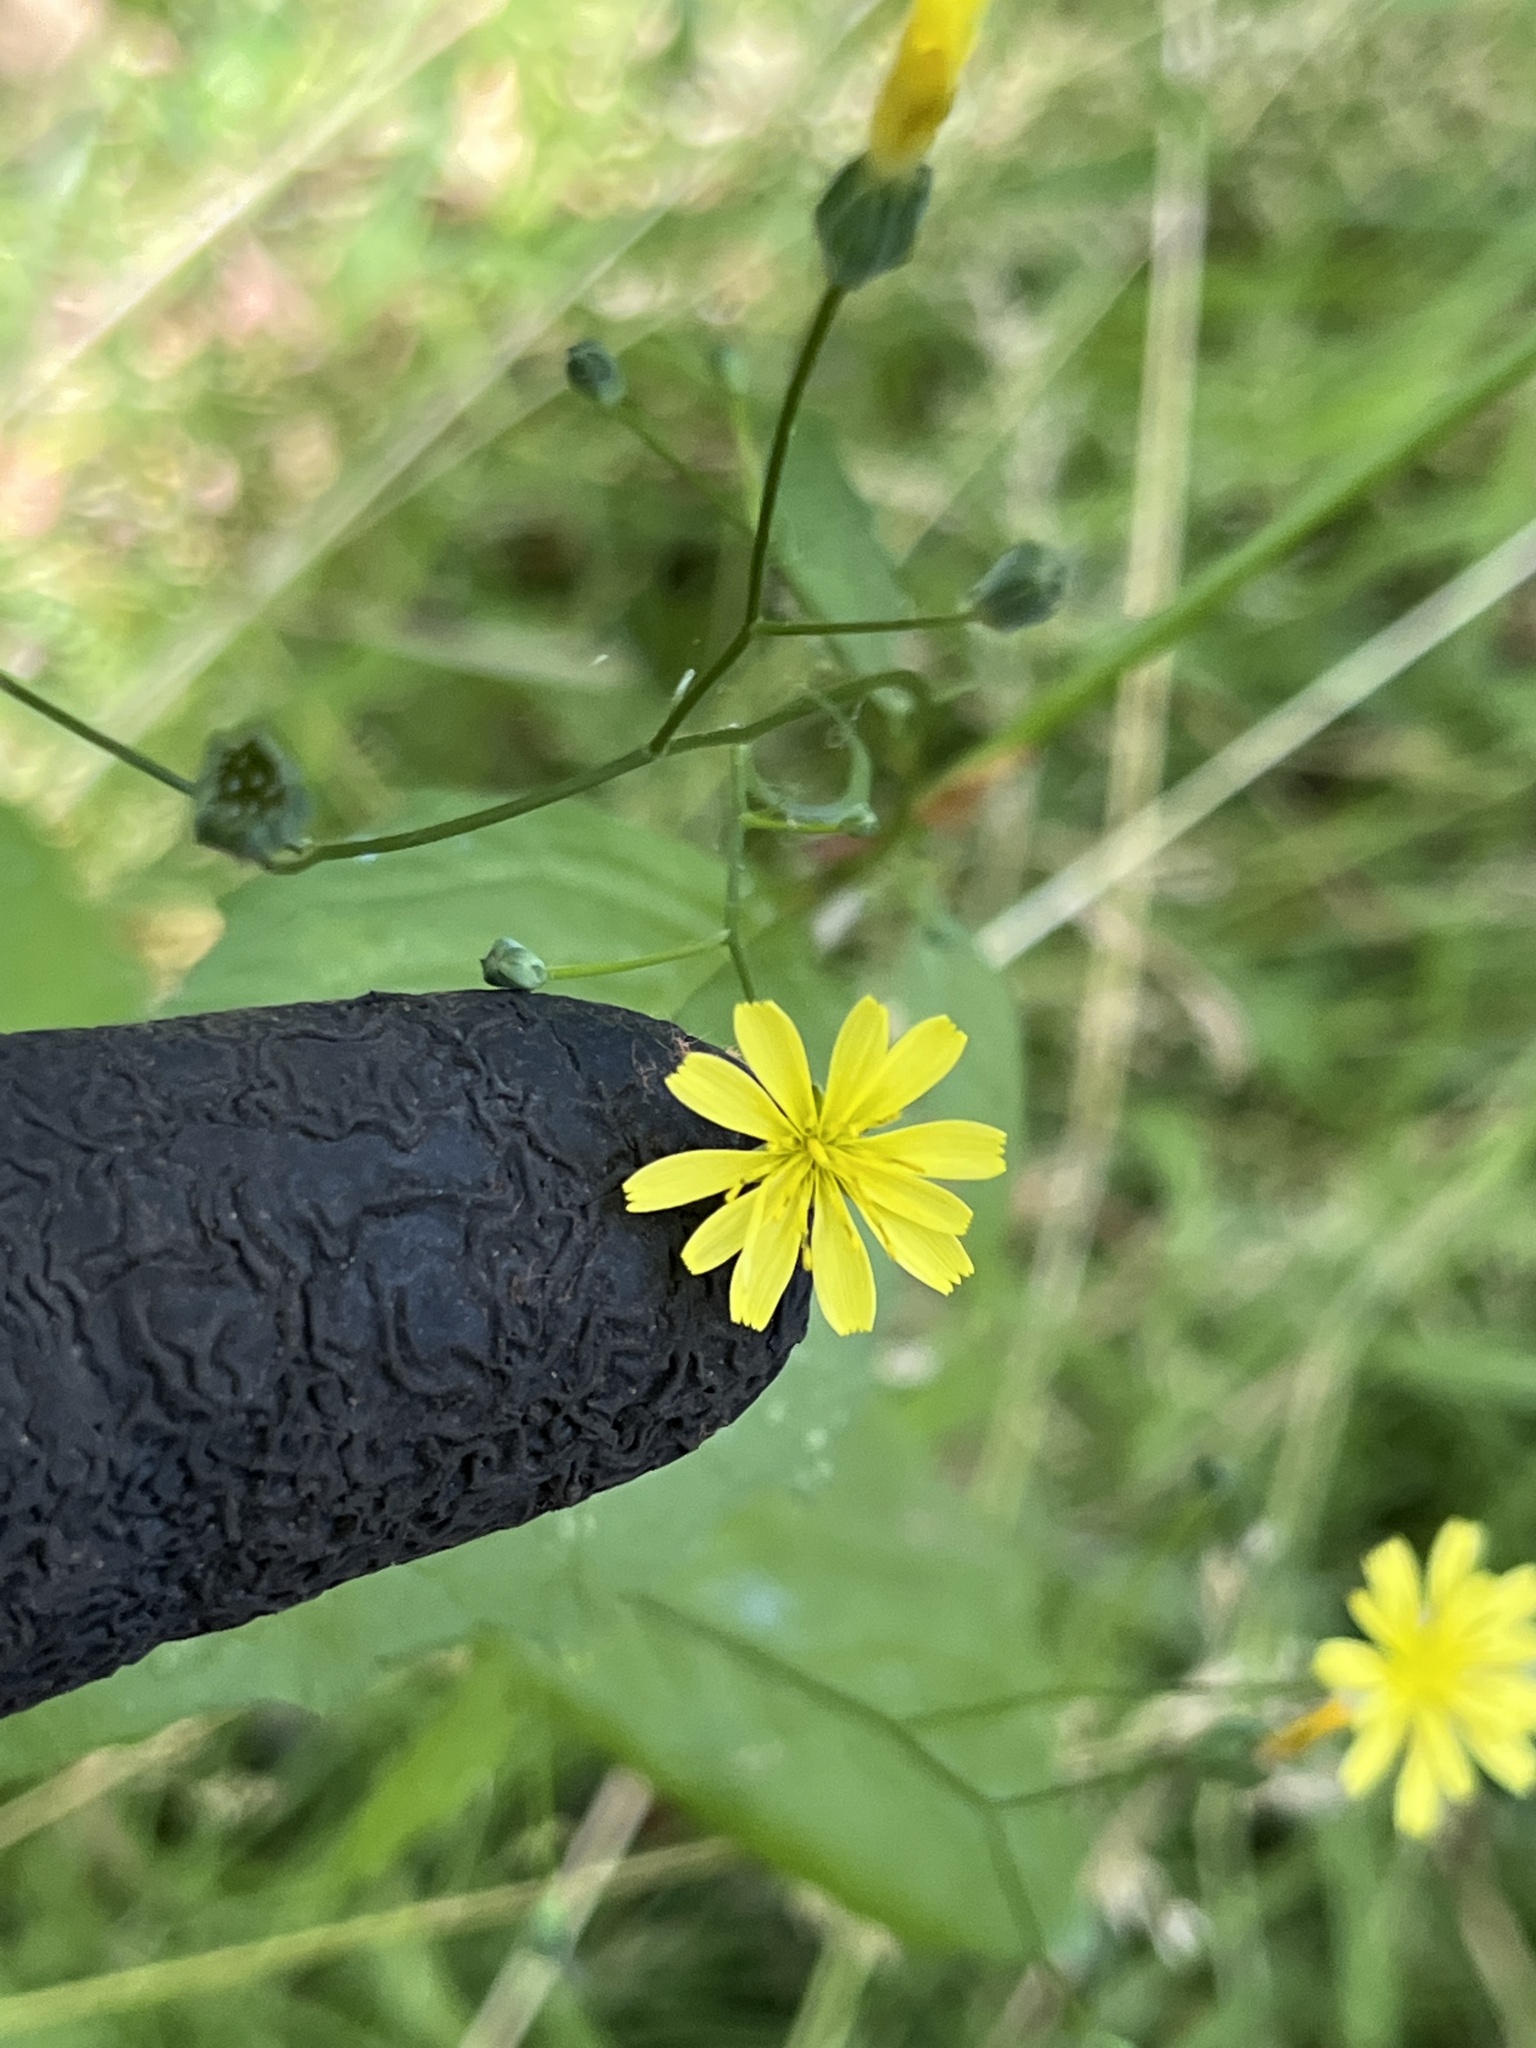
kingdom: Plantae
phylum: Tracheophyta
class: Magnoliopsida
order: Asterales
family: Asteraceae
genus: Lapsana
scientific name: Lapsana communis
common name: Nipplewort
